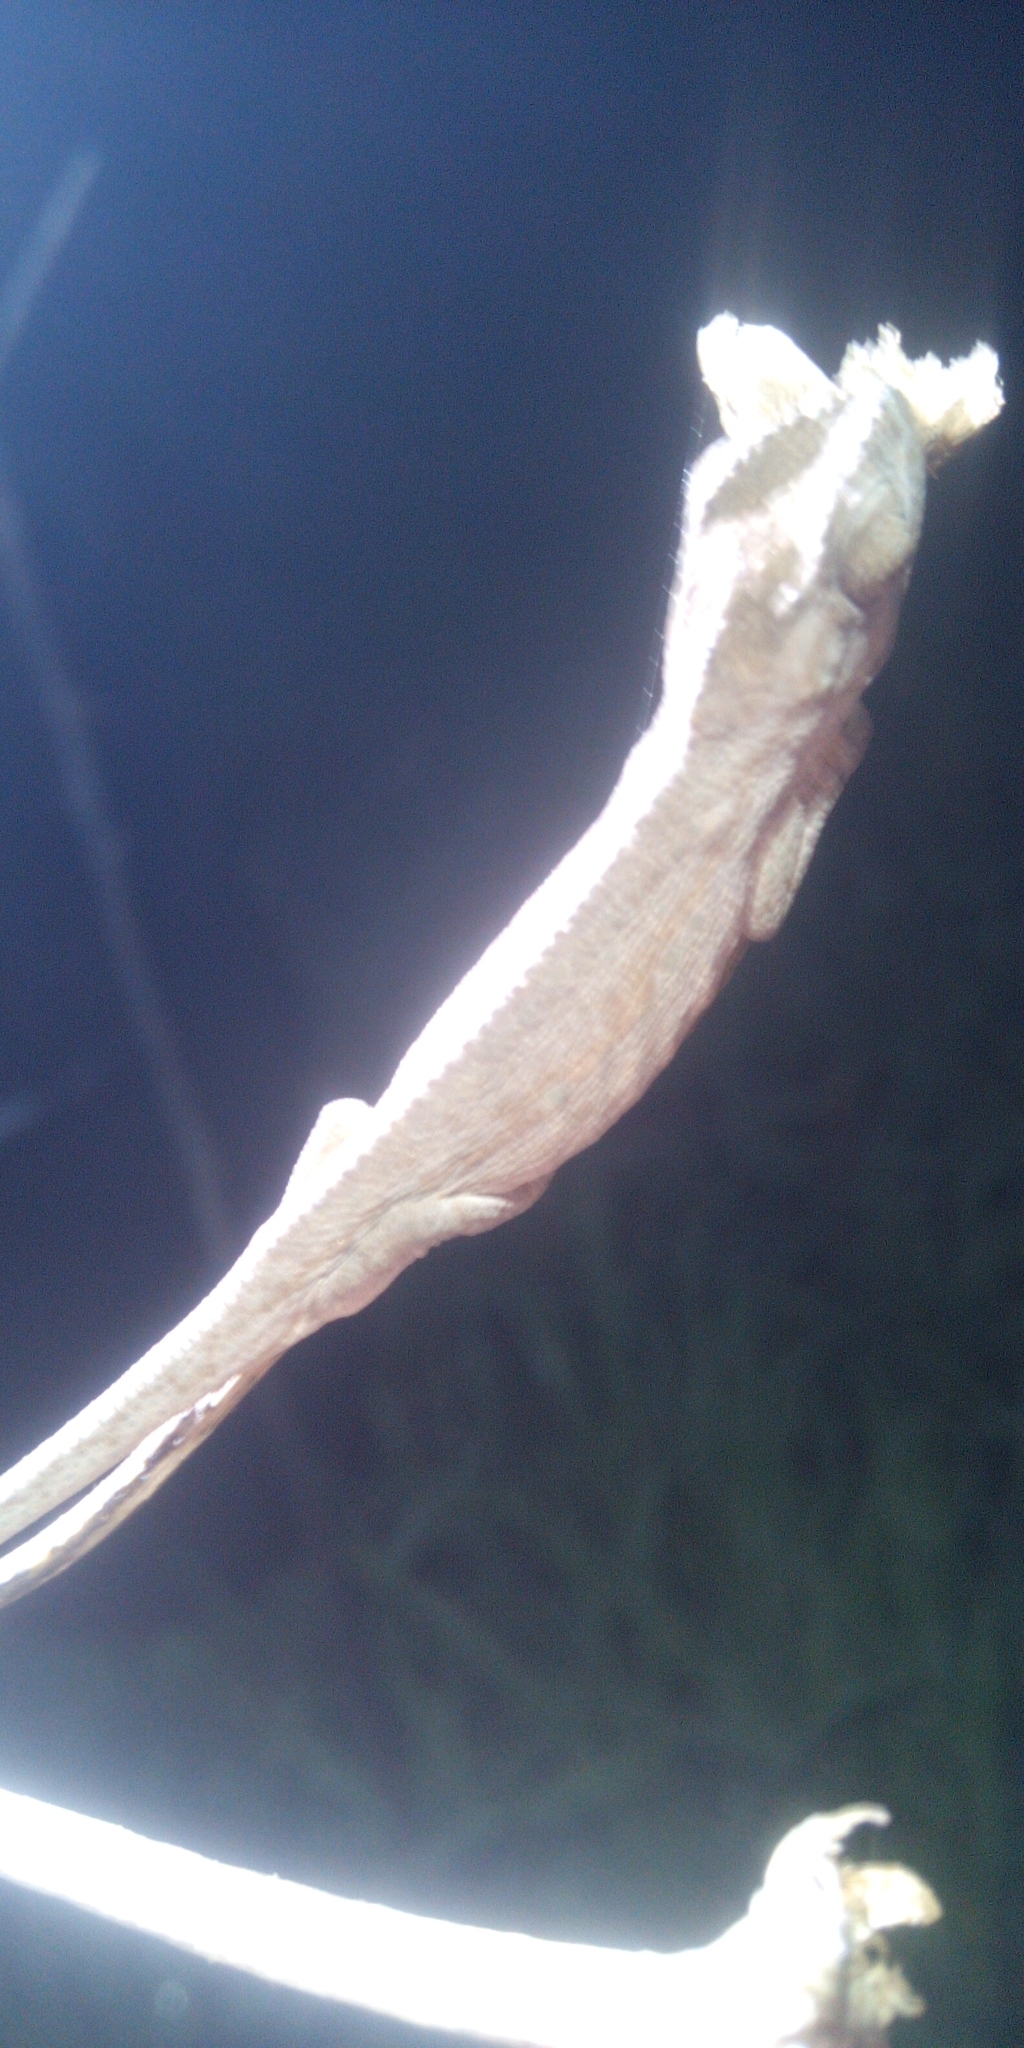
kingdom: Animalia
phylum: Chordata
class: Squamata
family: Chamaeleonidae
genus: Bradypodion
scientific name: Bradypodion pumilum
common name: Cape dwarf chameleon
